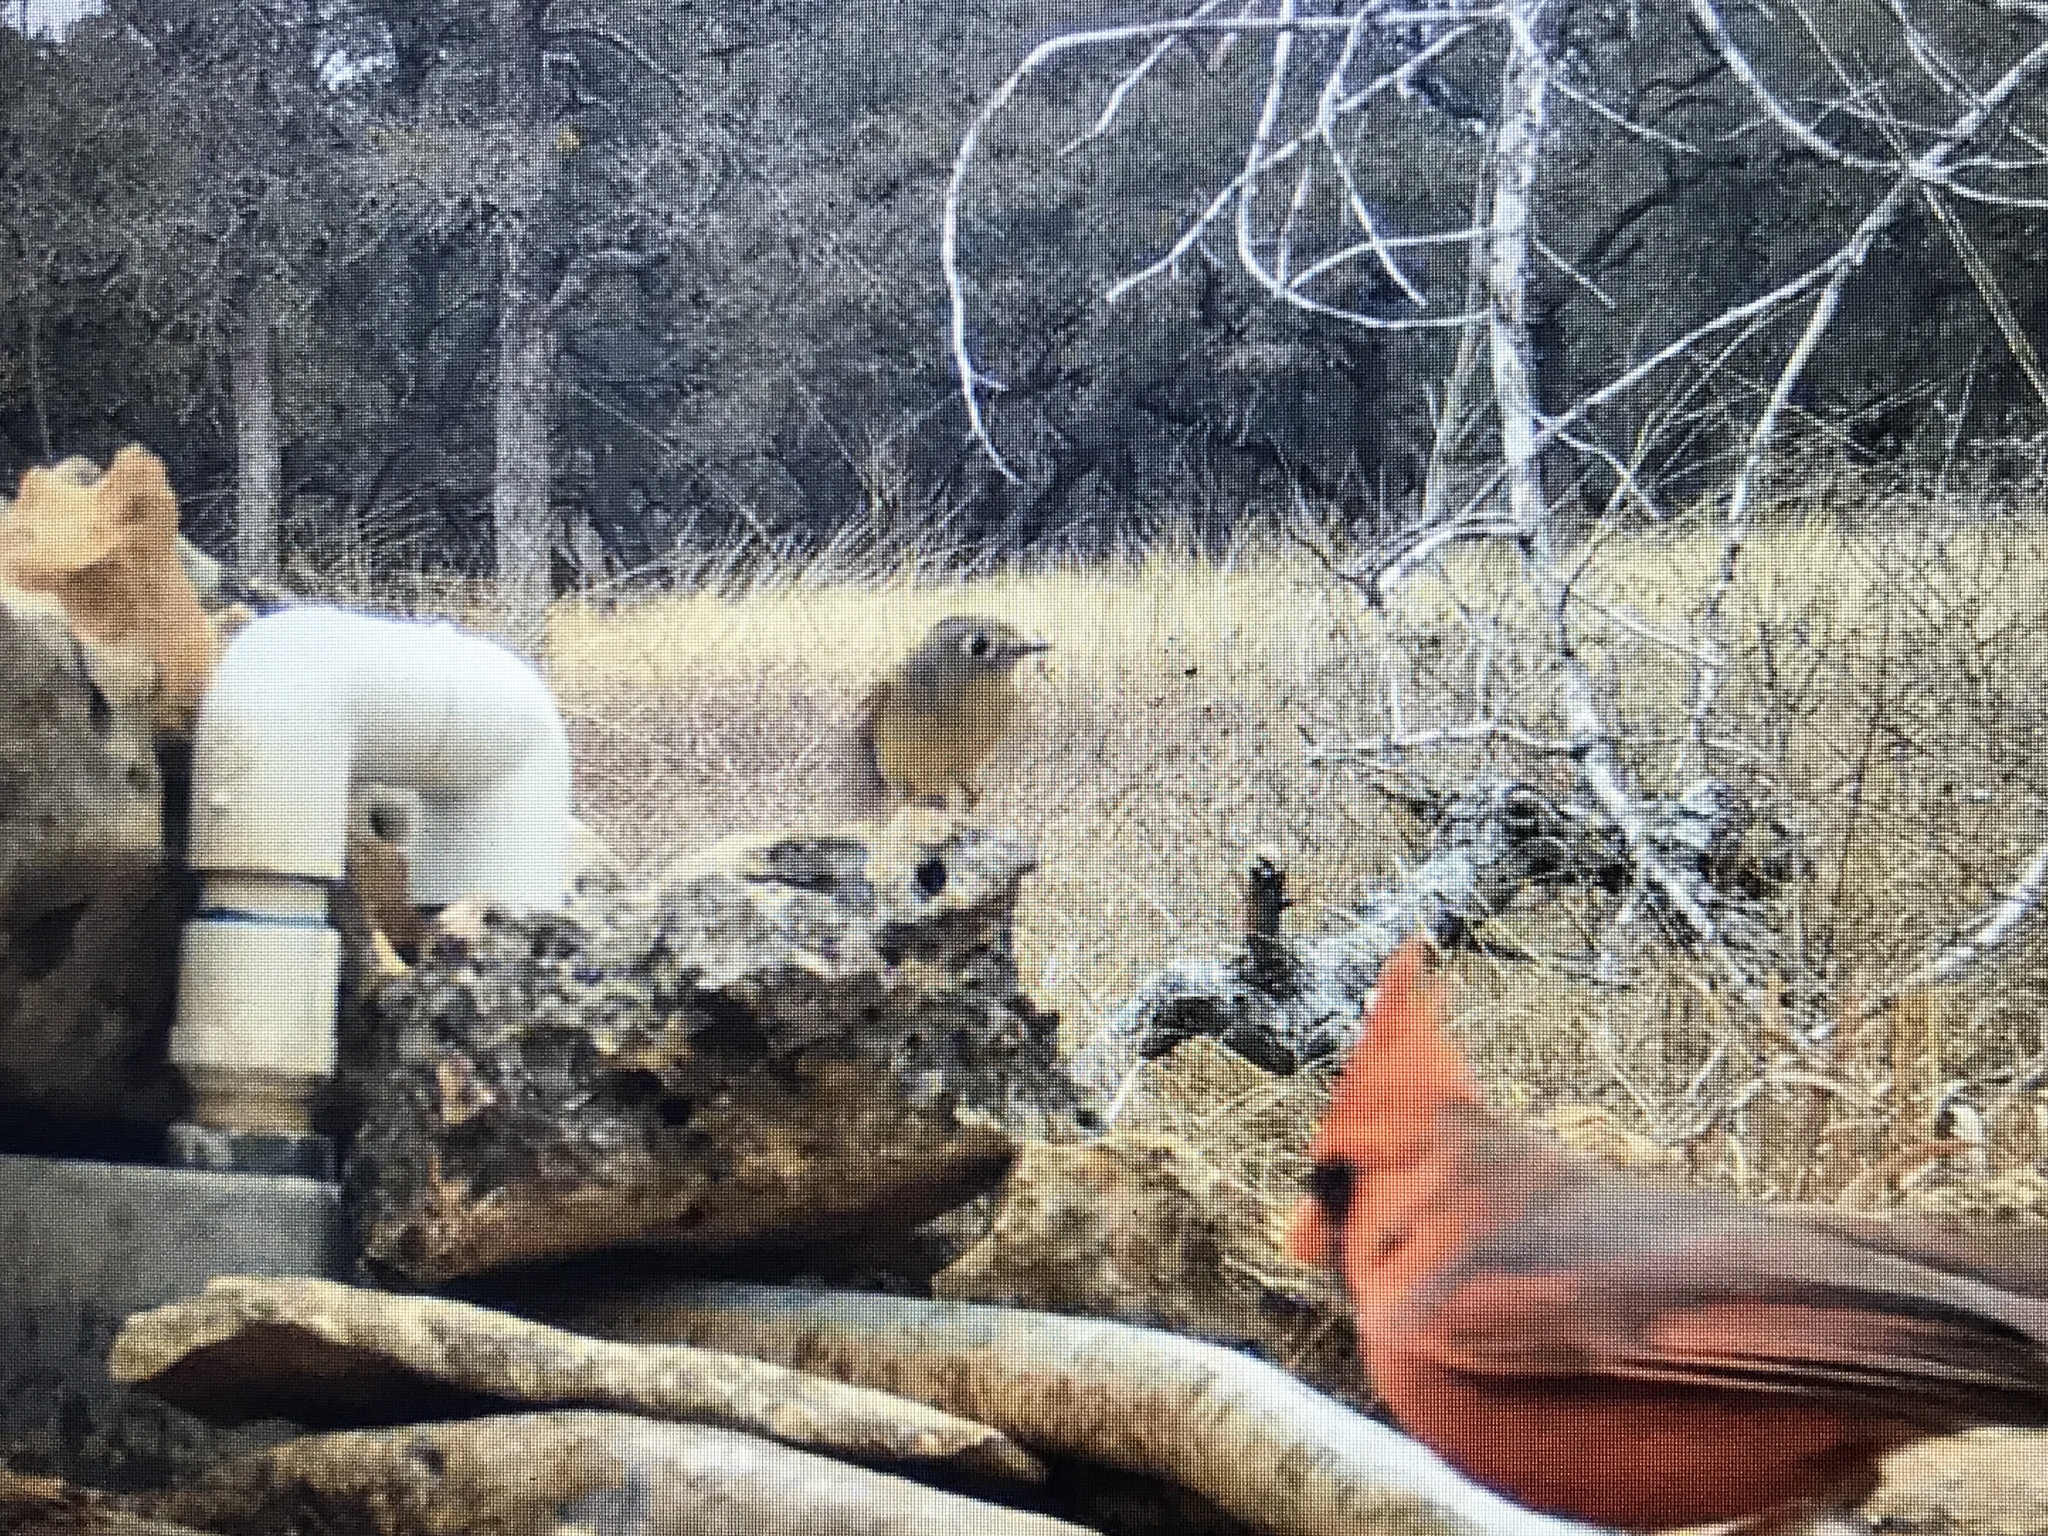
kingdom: Animalia
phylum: Chordata
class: Aves
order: Passeriformes
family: Regulidae
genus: Regulus
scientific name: Regulus calendula
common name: Ruby-crowned kinglet
